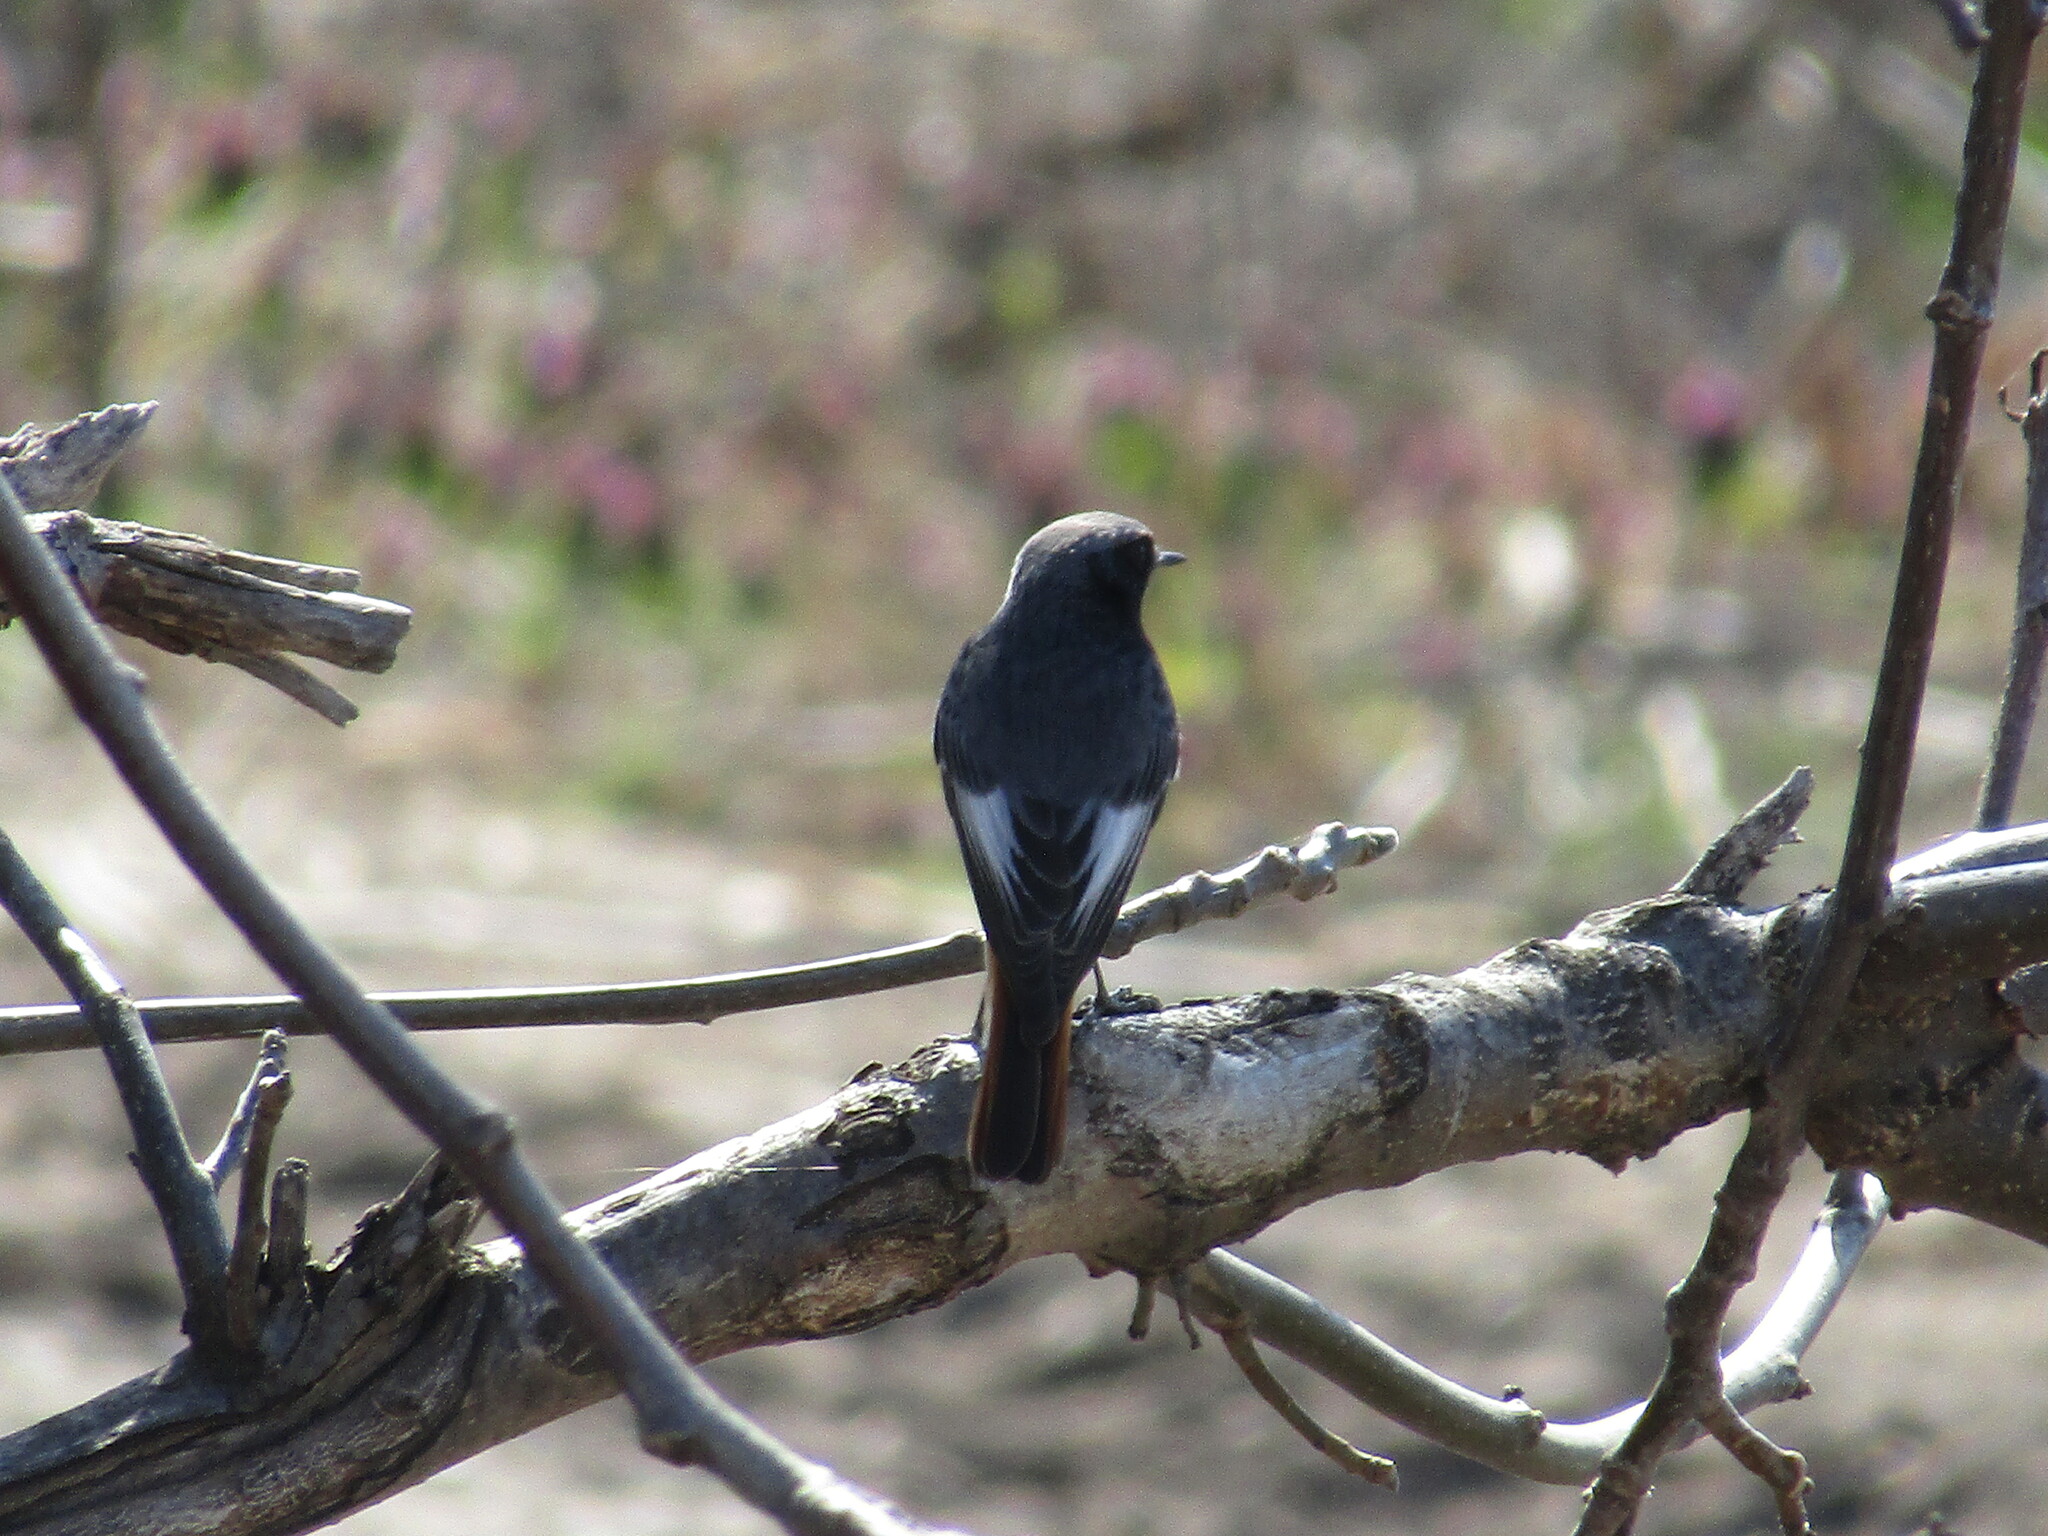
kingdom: Animalia
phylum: Chordata
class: Aves
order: Passeriformes
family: Muscicapidae
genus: Phoenicurus
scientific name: Phoenicurus ochruros
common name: Black redstart
